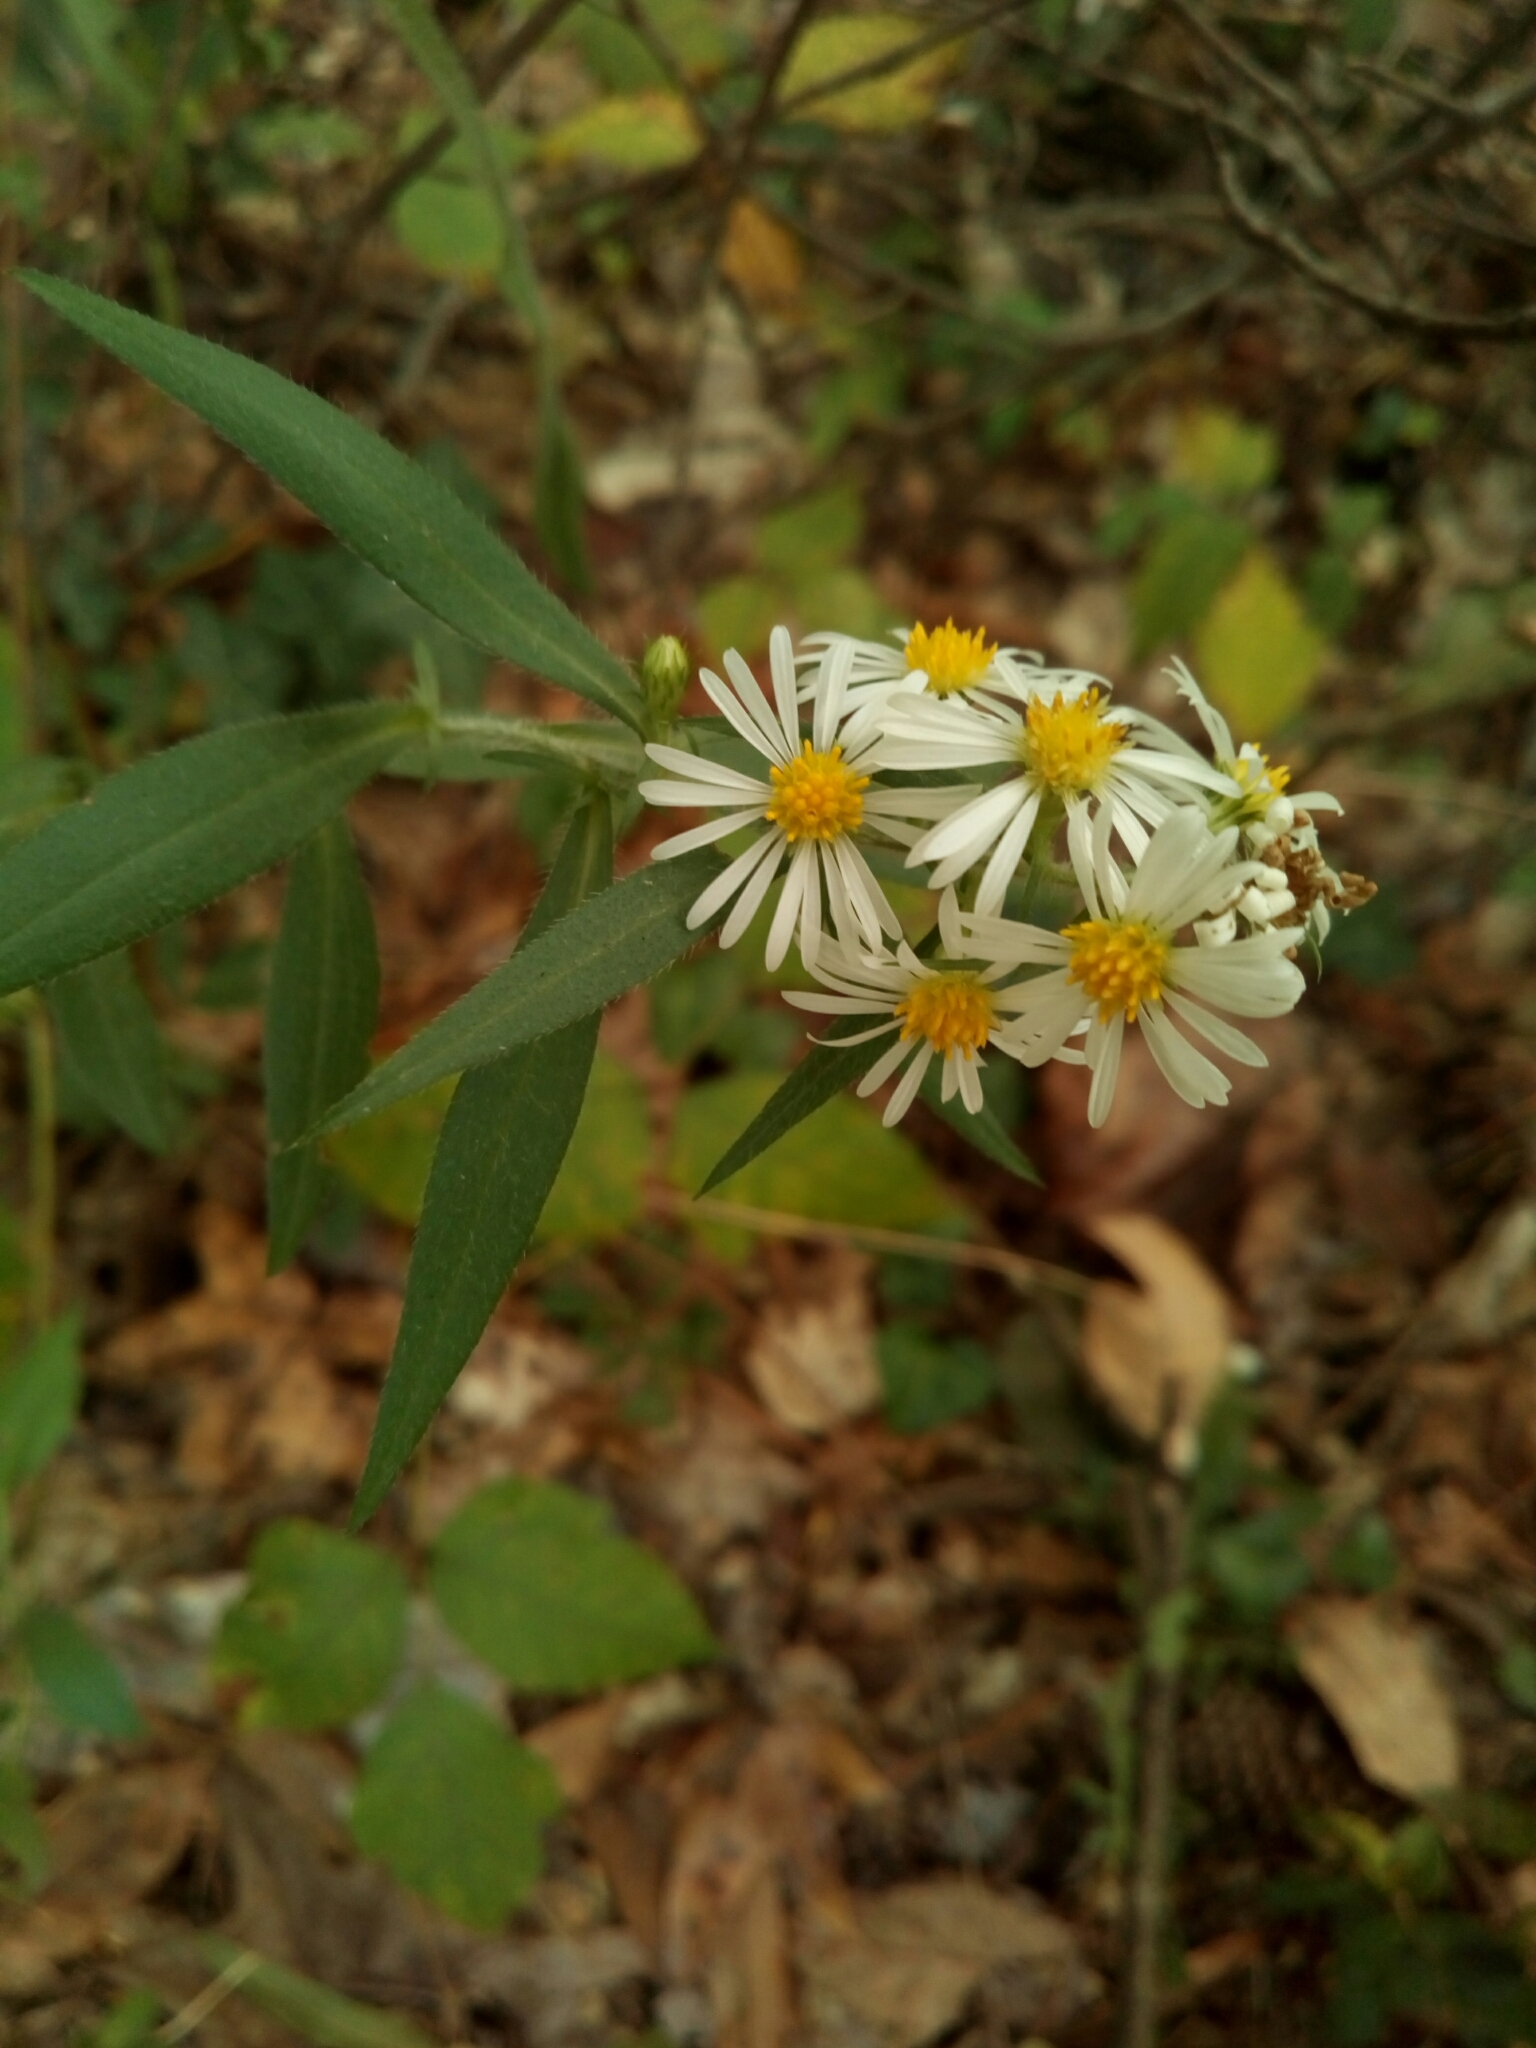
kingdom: Plantae
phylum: Tracheophyta
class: Magnoliopsida
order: Asterales
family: Asteraceae
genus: Symphyotrichum
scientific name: Symphyotrichum pilosum
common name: Awl aster
